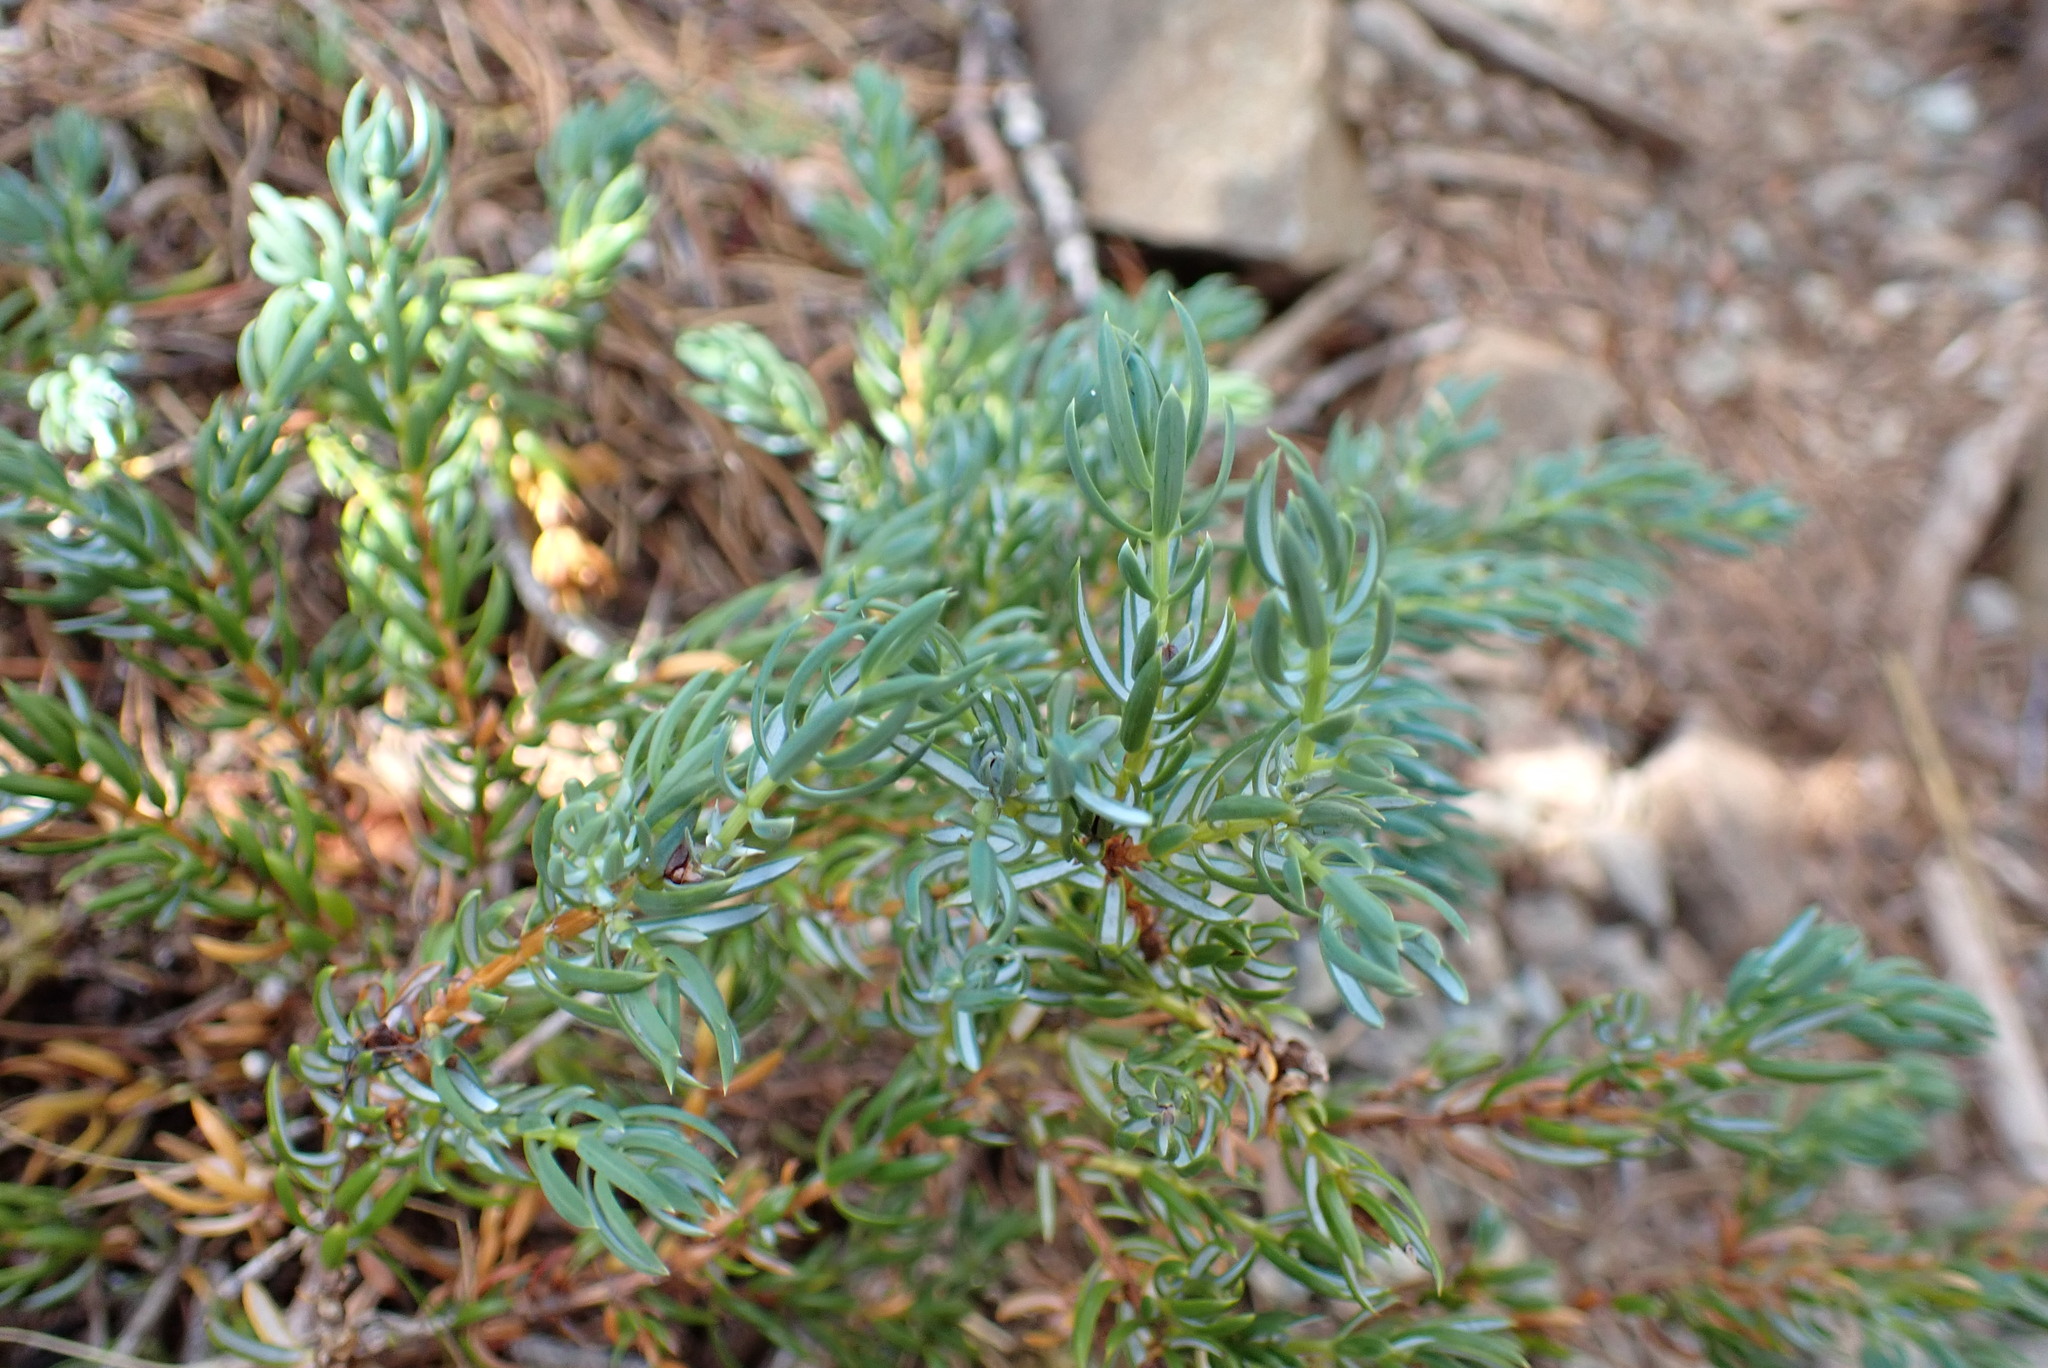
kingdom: Plantae
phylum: Tracheophyta
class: Pinopsida
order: Pinales
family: Cupressaceae
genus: Juniperus
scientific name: Juniperus communis
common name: Common juniper
